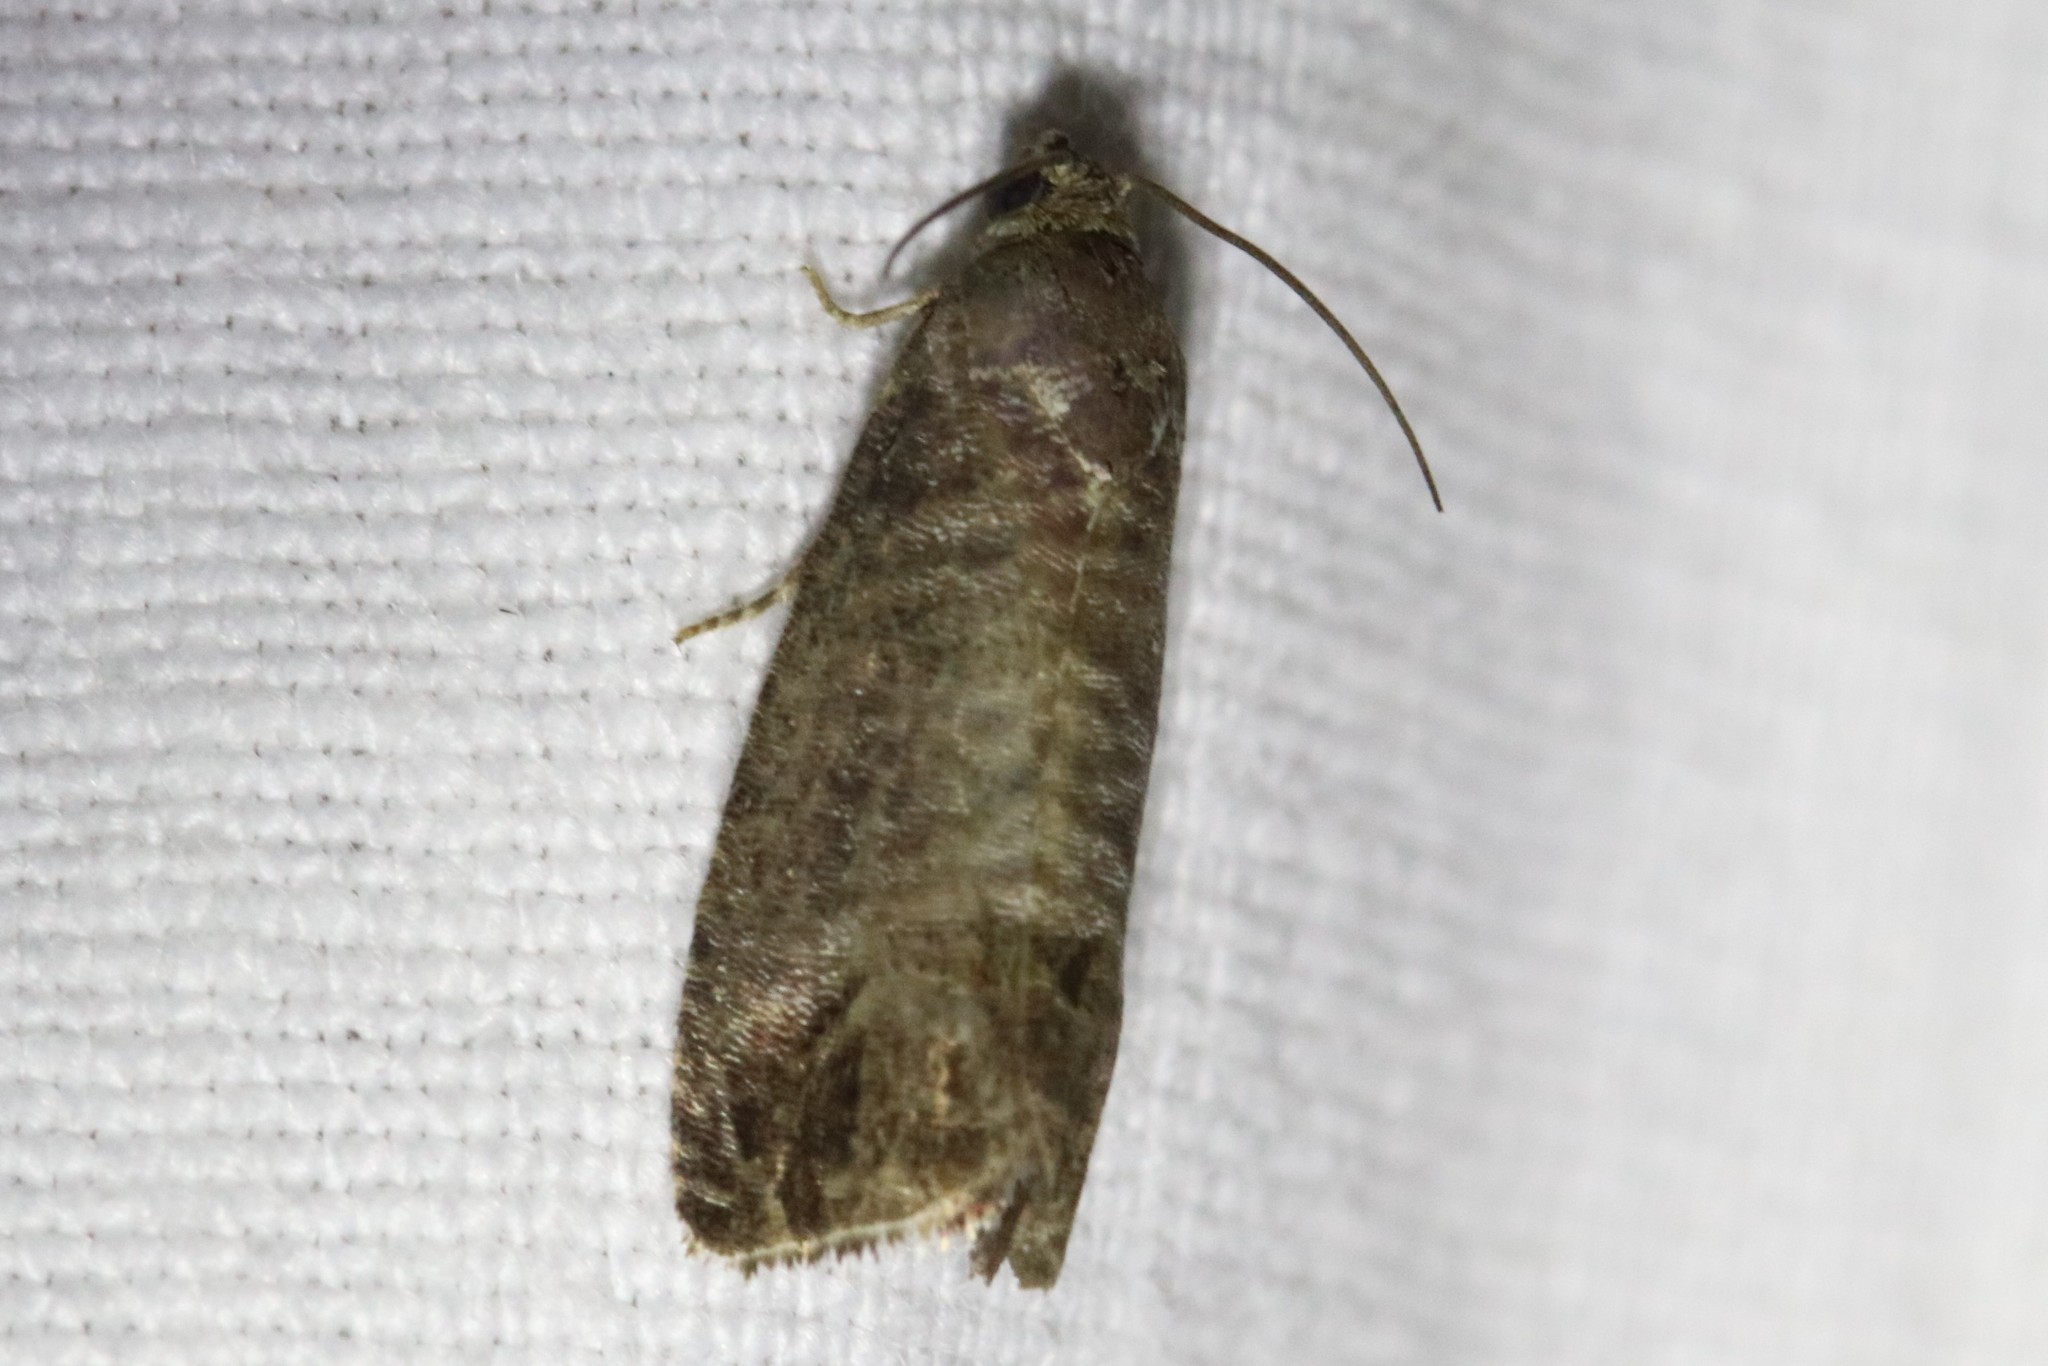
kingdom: Animalia
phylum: Arthropoda
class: Insecta
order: Lepidoptera
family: Tortricidae
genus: Cydia
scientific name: Cydia pomonella
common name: Codling moth
